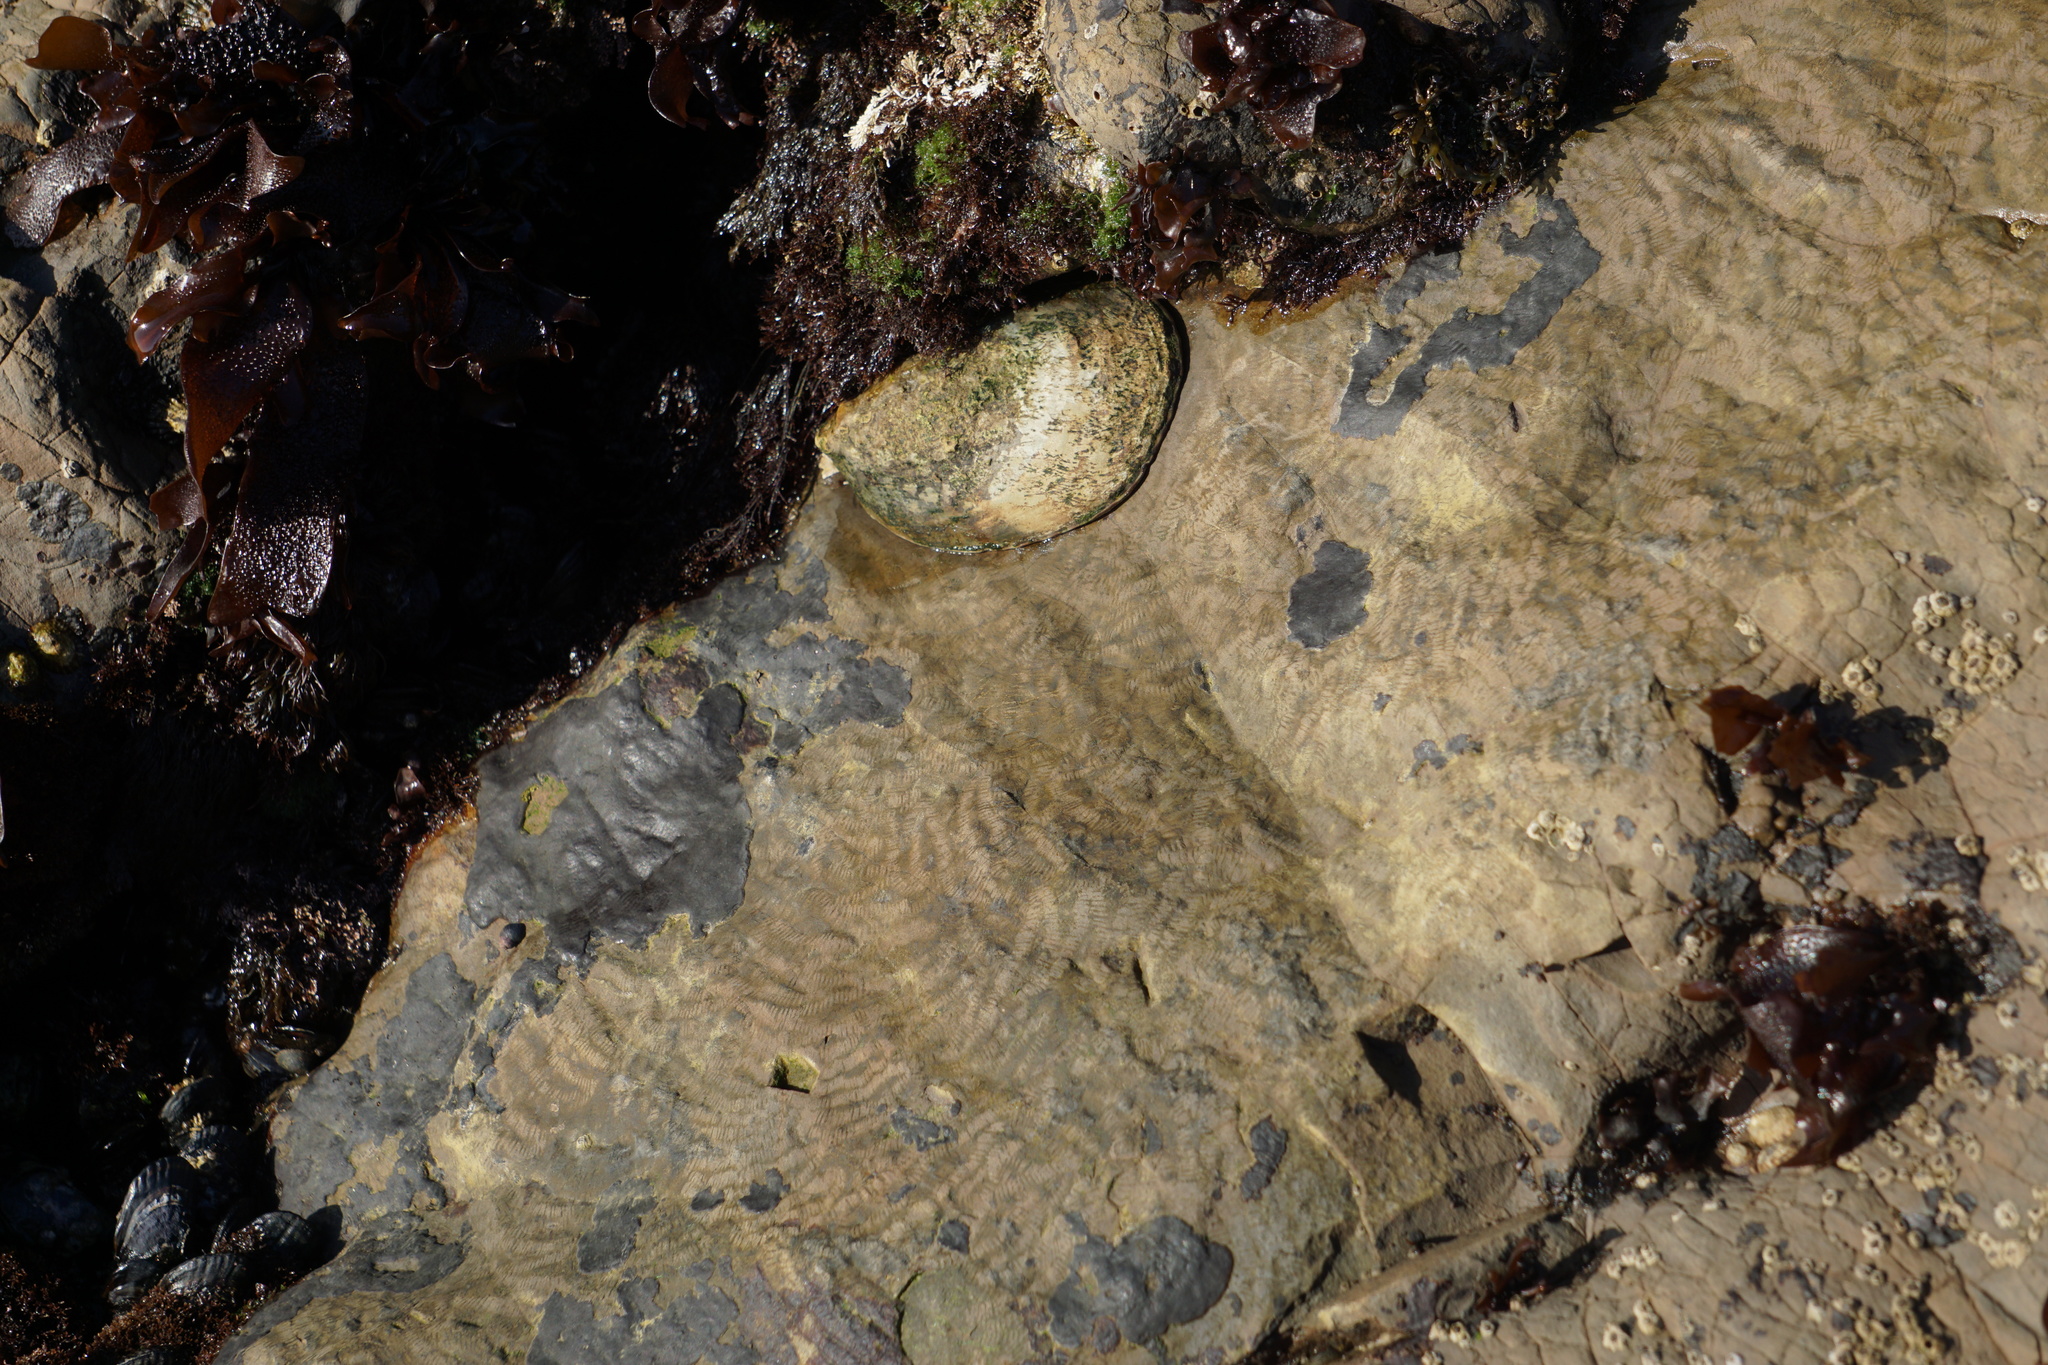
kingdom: Animalia
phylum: Mollusca
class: Gastropoda
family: Lottiidae
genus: Lottia
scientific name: Lottia gigantea
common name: Owl limpet
